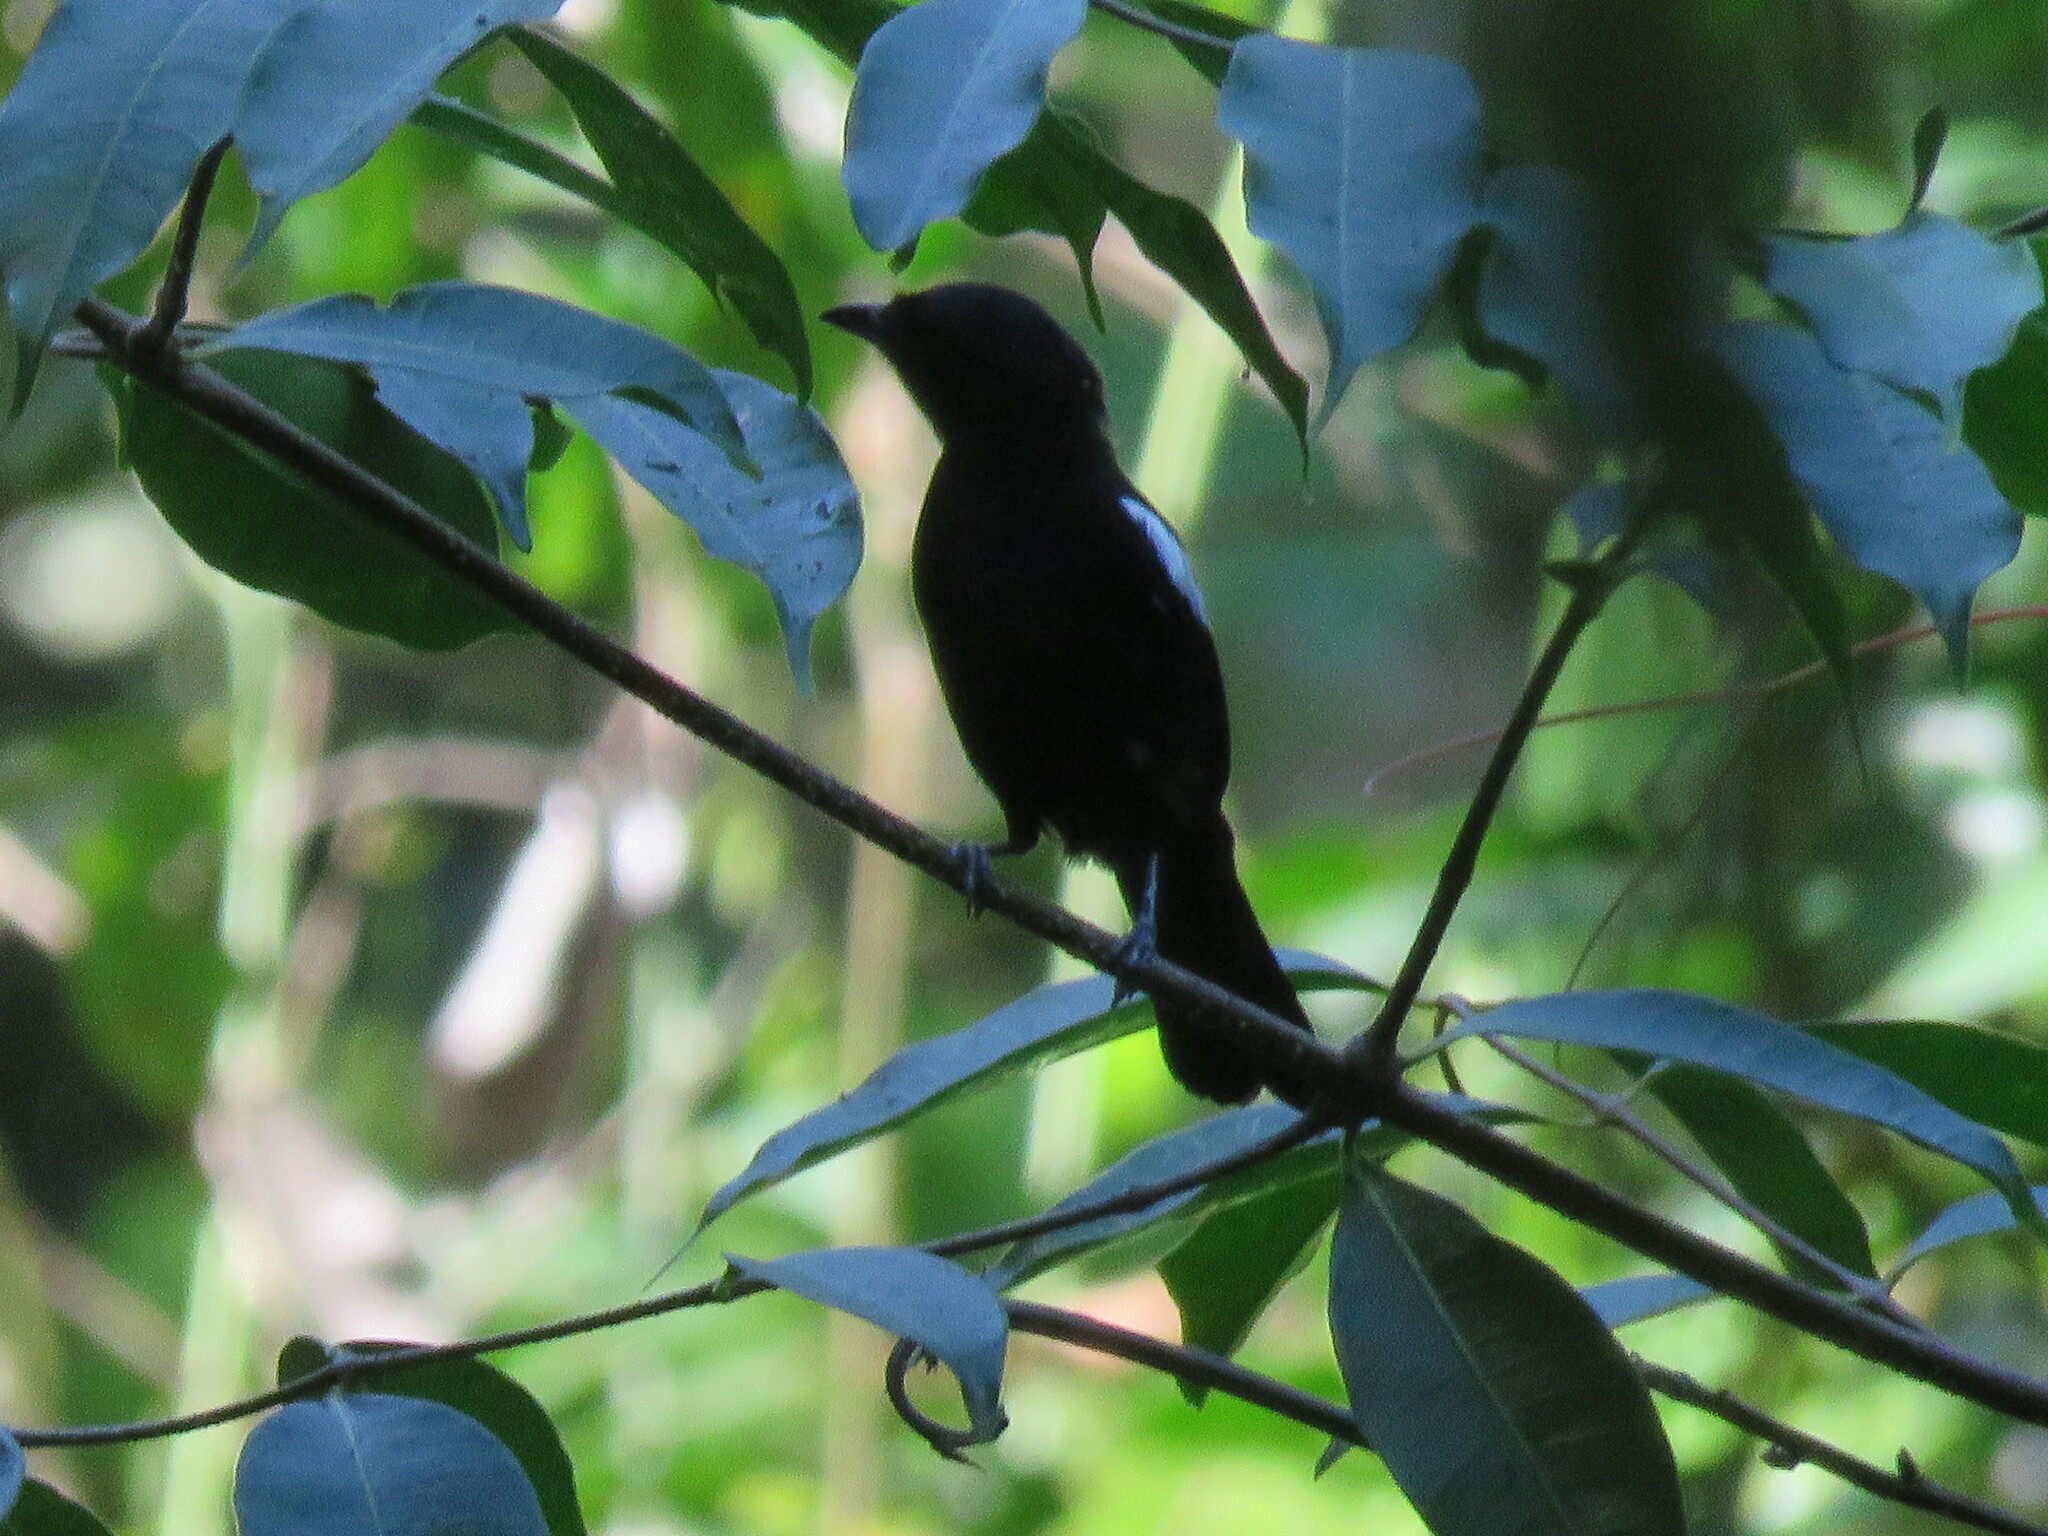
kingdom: Animalia
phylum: Chordata
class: Aves
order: Passeriformes
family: Thraupidae
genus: Loriotus
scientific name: Loriotus luctuosus
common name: White-shouldered tanager
